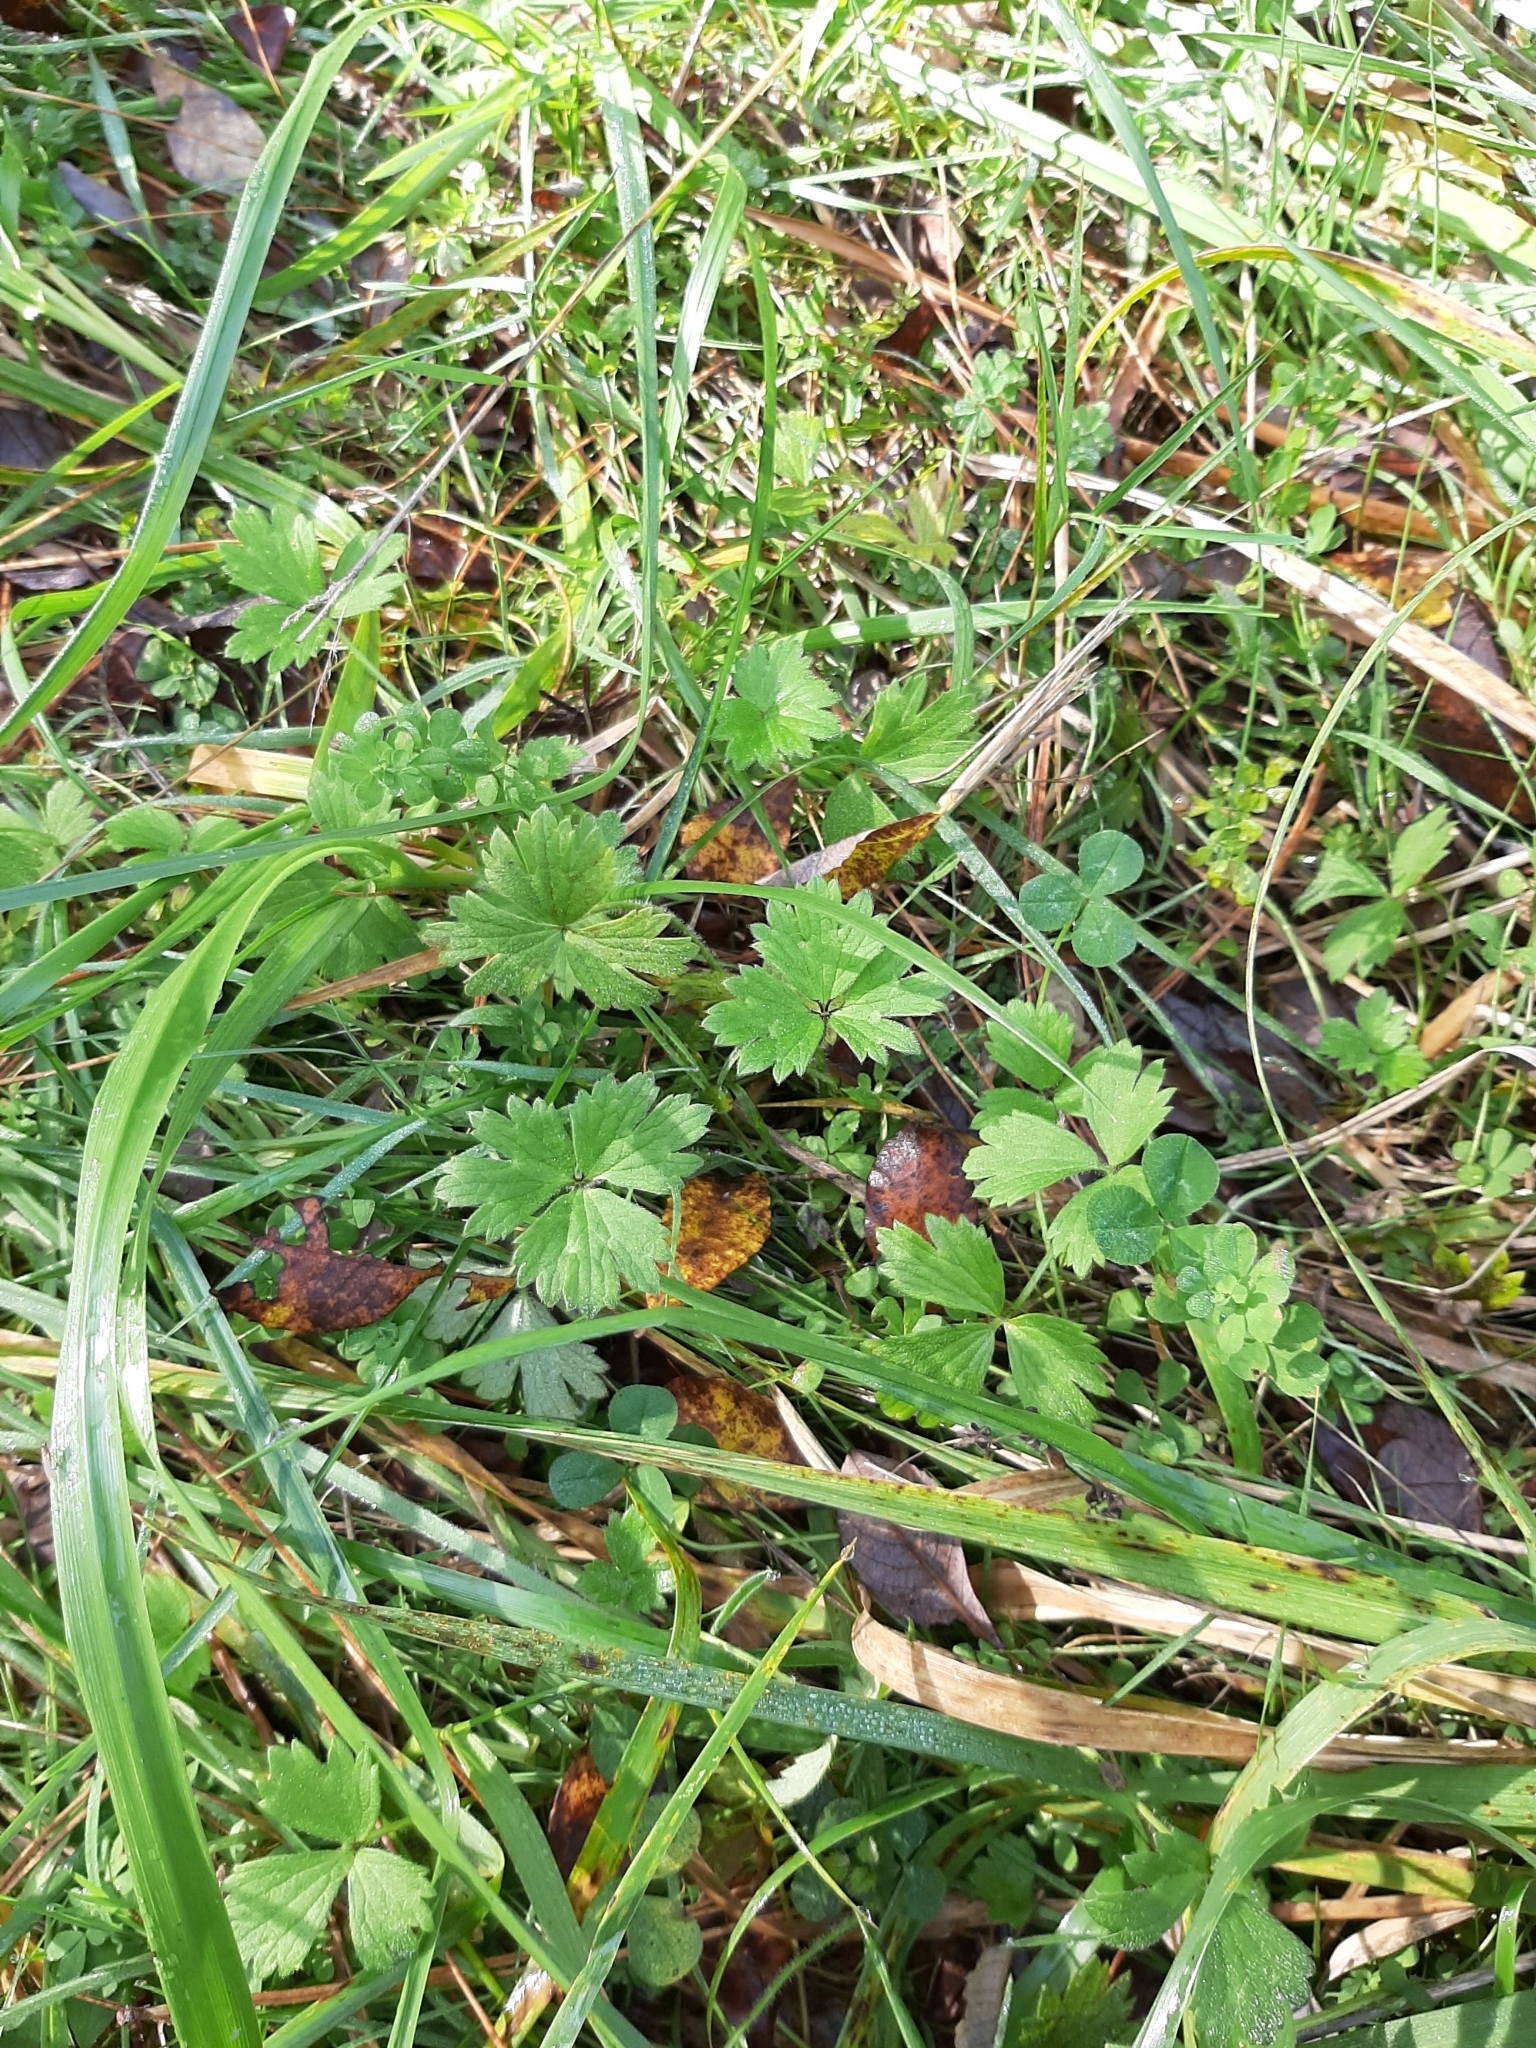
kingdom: Plantae
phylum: Tracheophyta
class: Magnoliopsida
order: Ranunculales
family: Ranunculaceae
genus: Ranunculus
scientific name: Ranunculus repens
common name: Creeping buttercup
